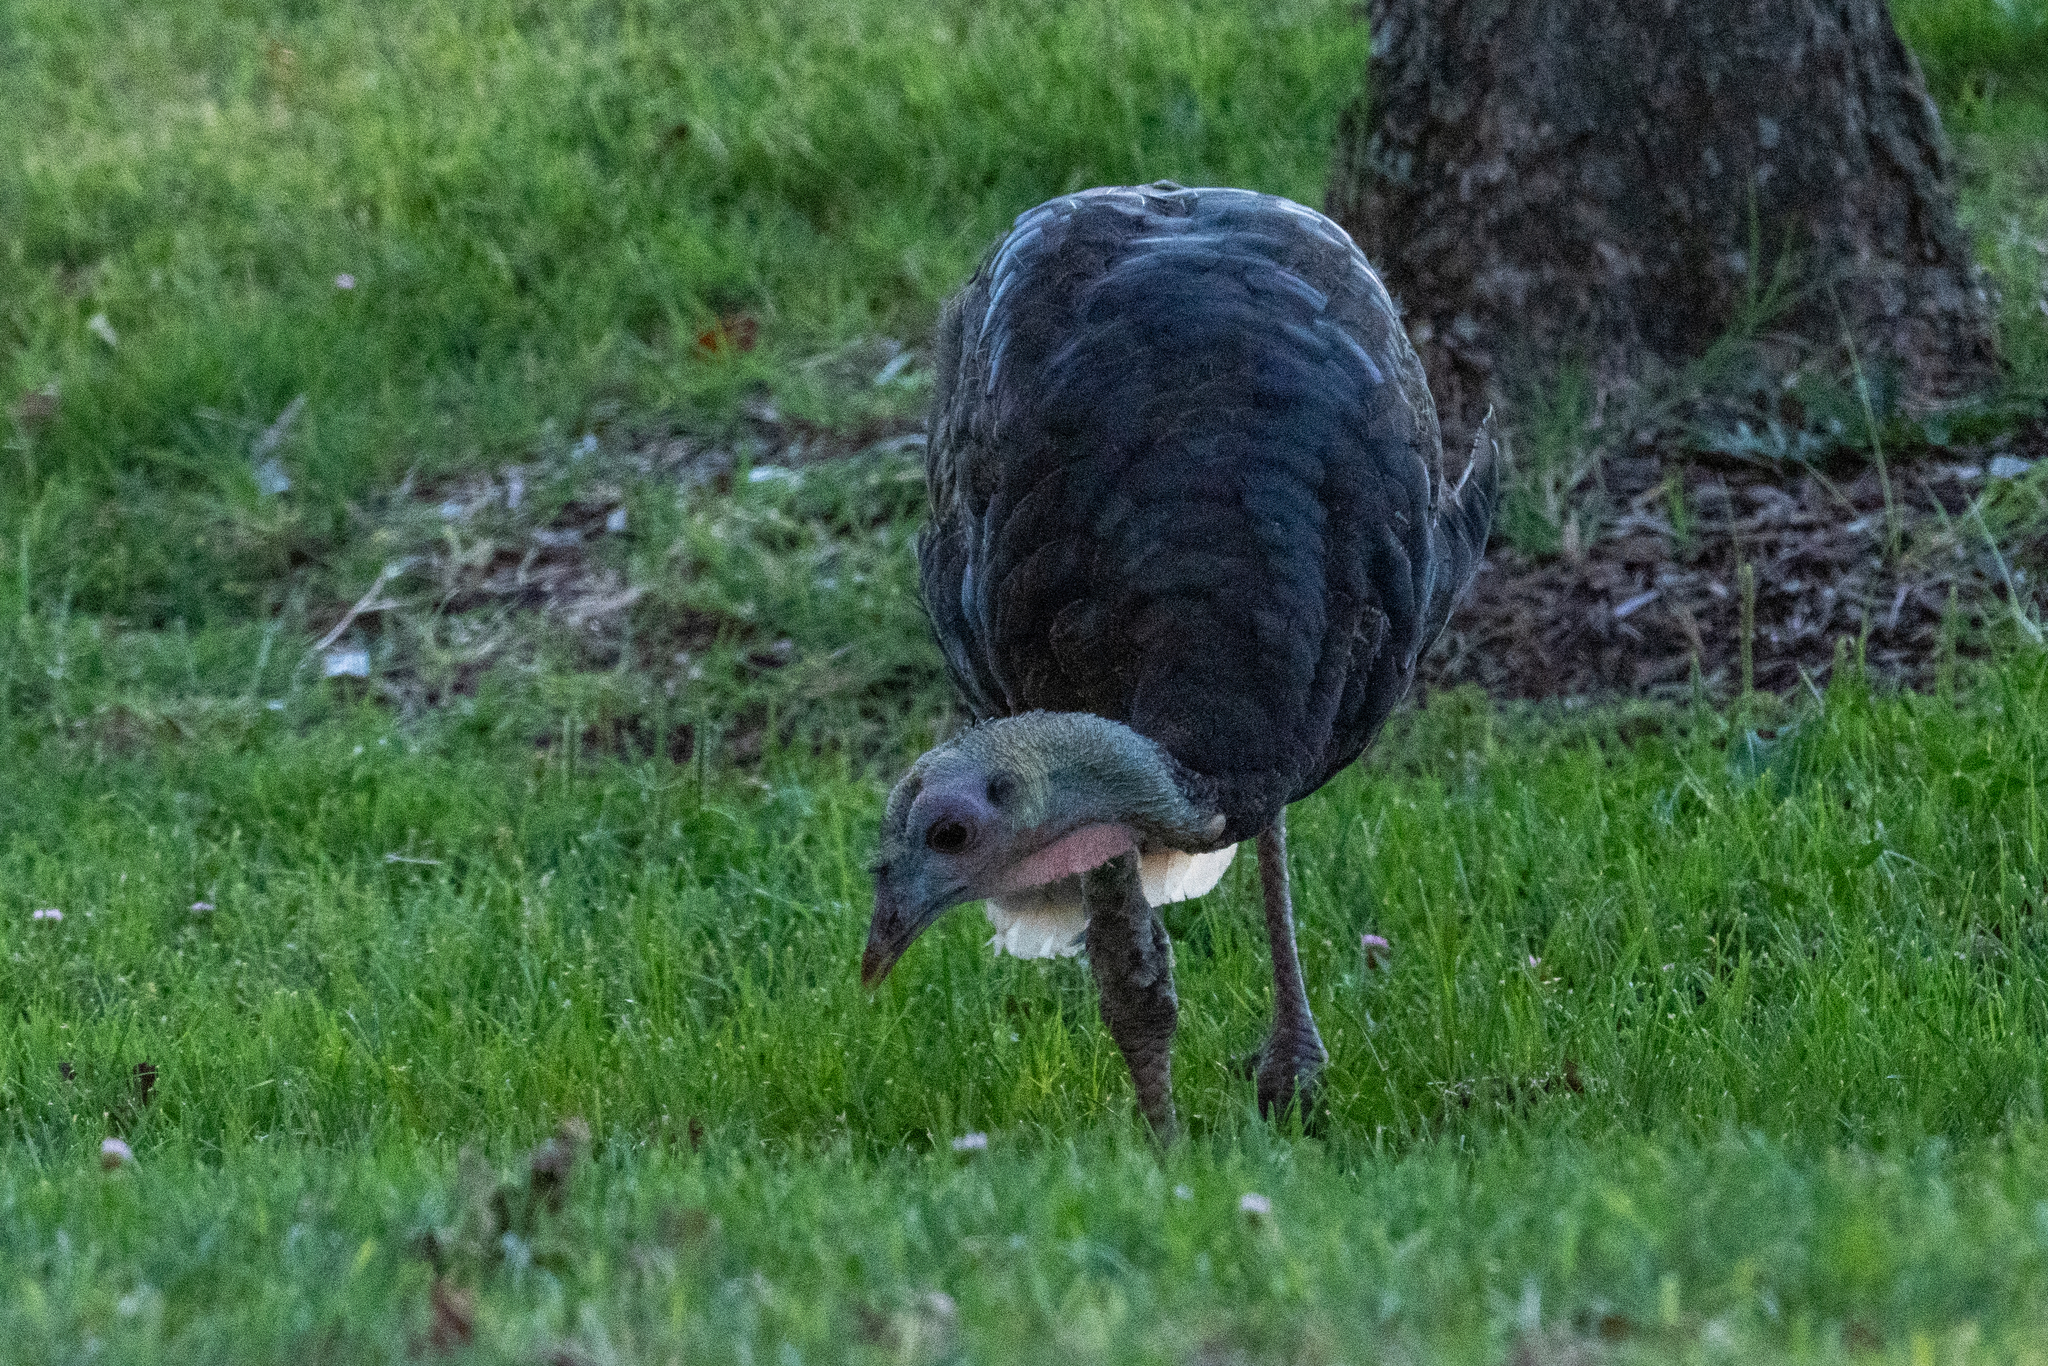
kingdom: Animalia
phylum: Chordata
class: Aves
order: Galliformes
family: Phasianidae
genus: Meleagris
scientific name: Meleagris gallopavo
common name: Wild turkey
